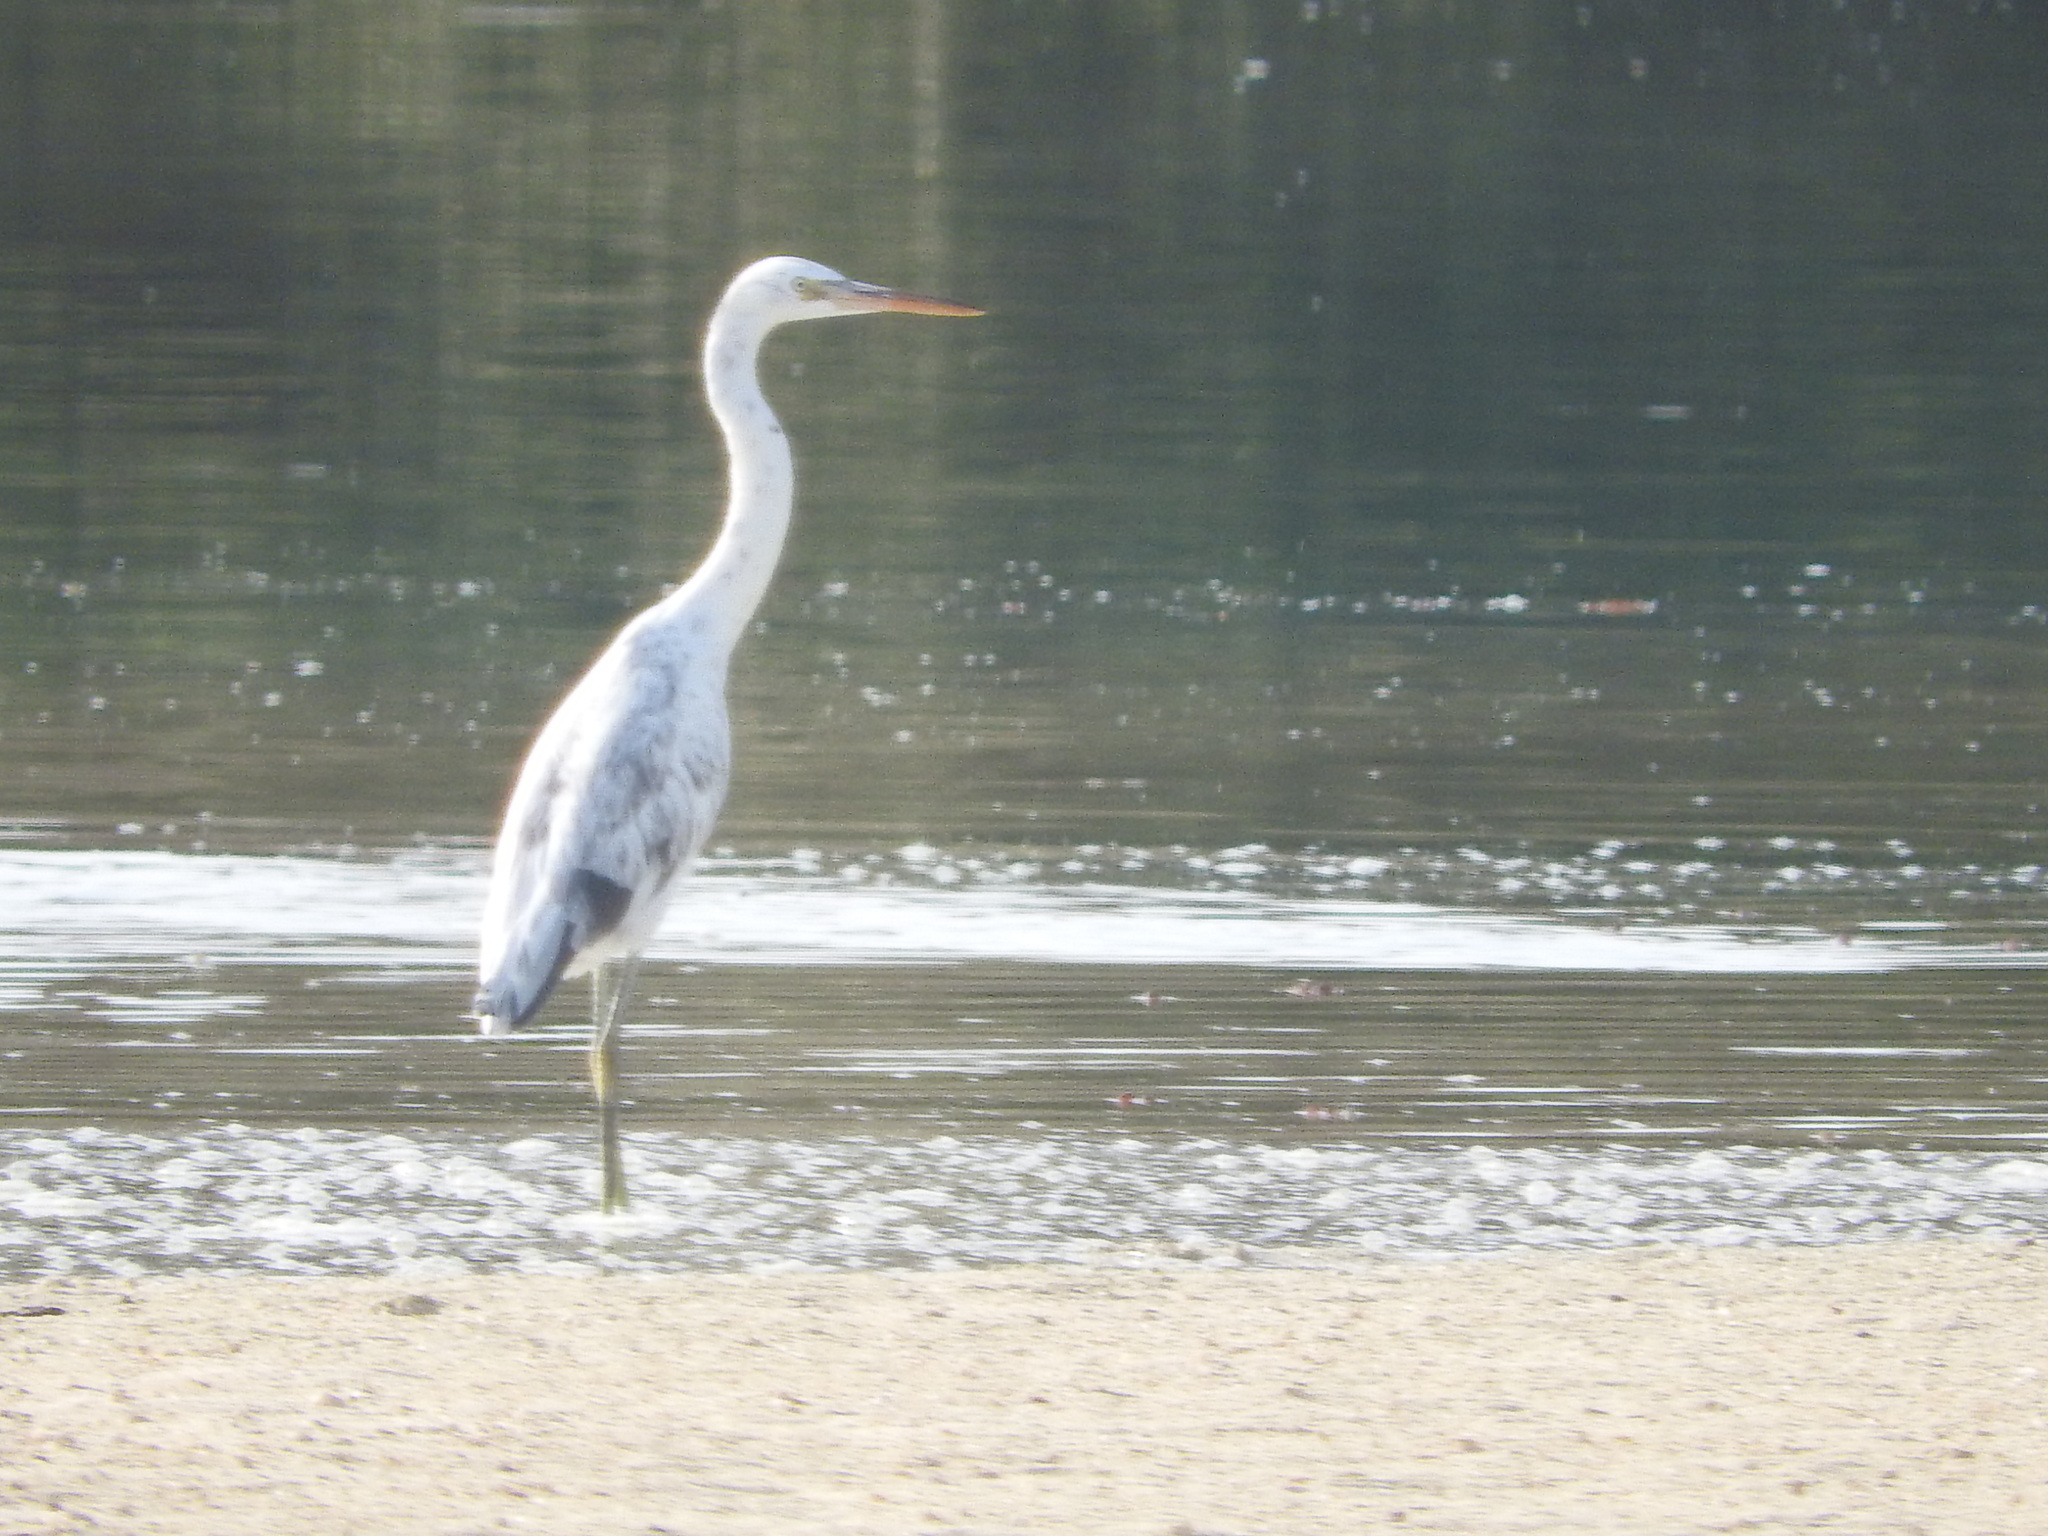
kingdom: Animalia
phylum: Chordata
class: Aves
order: Pelecaniformes
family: Ardeidae
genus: Egretta
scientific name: Egretta gularis
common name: Western reef-heron
